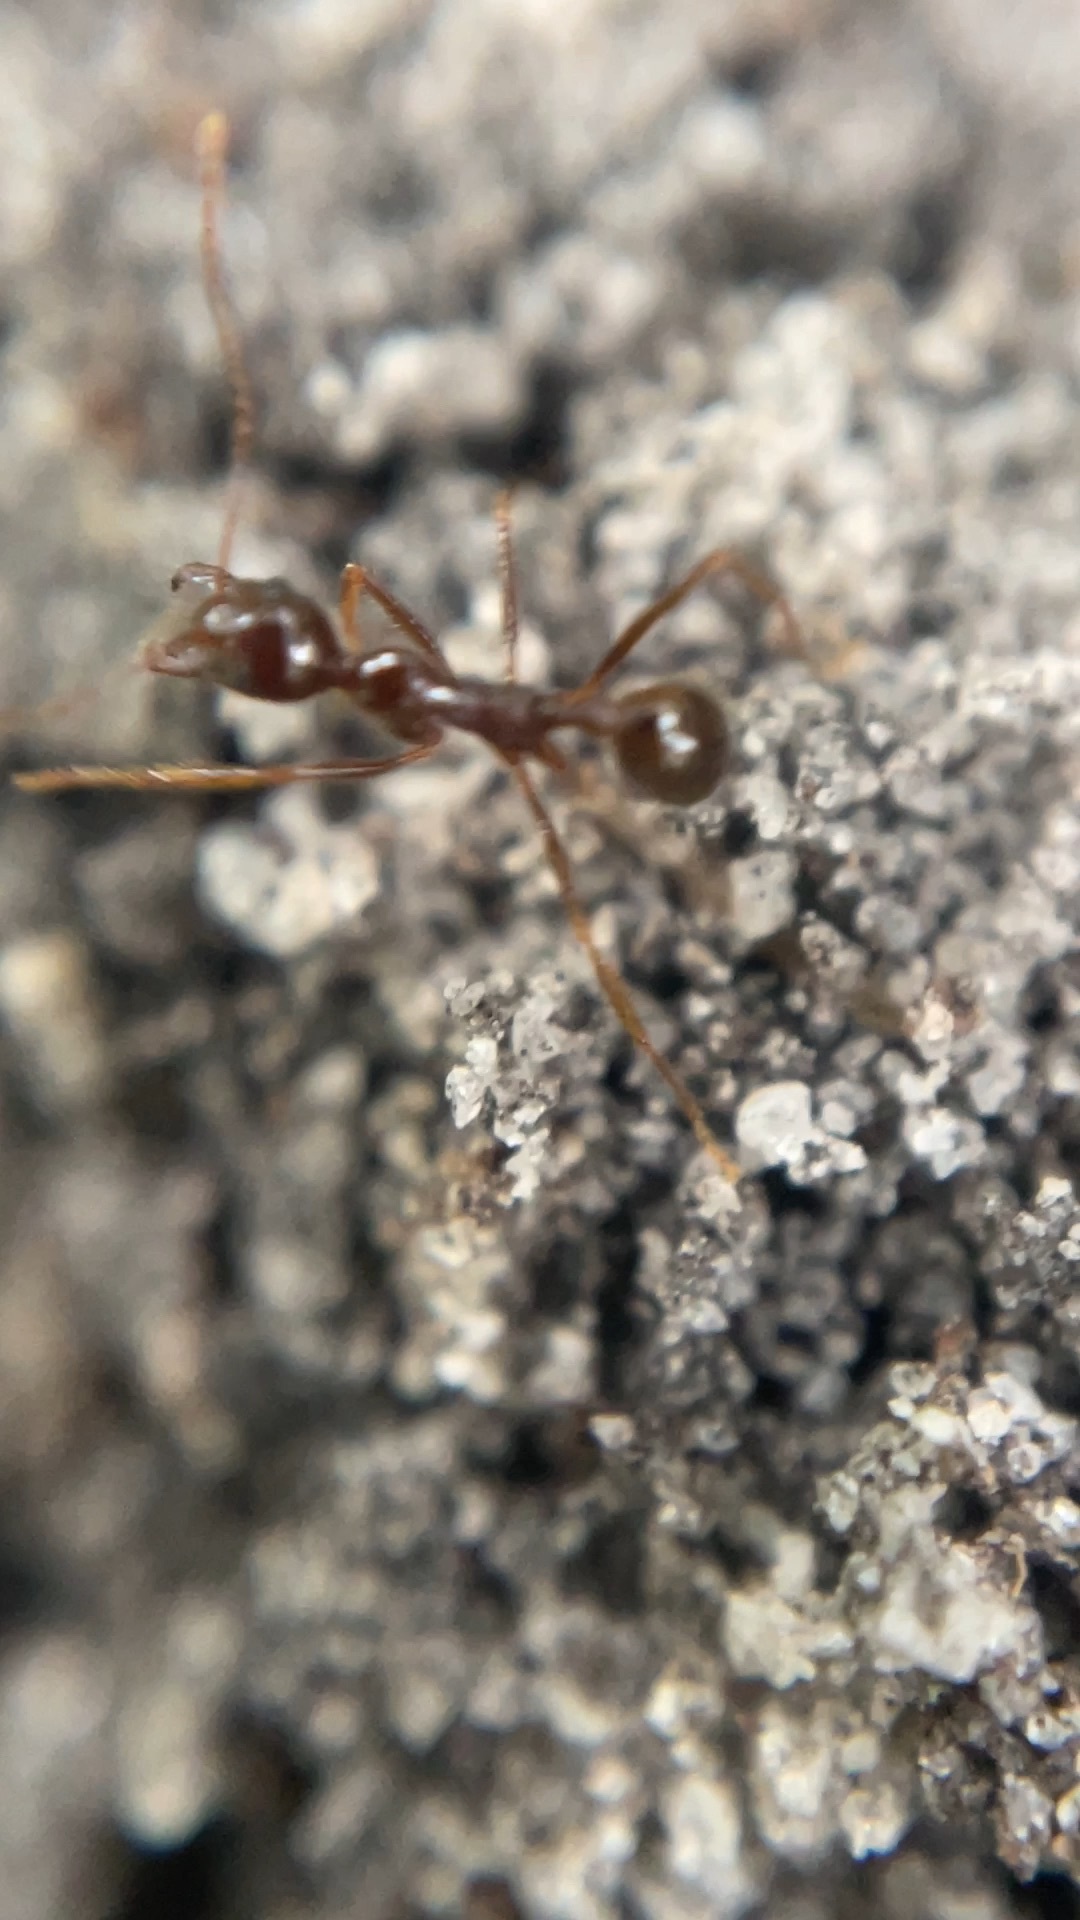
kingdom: Animalia
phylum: Arthropoda
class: Insecta
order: Hymenoptera
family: Formicidae
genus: Aphaenogaster
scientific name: Aphaenogaster longiceps
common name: Funnel ant
